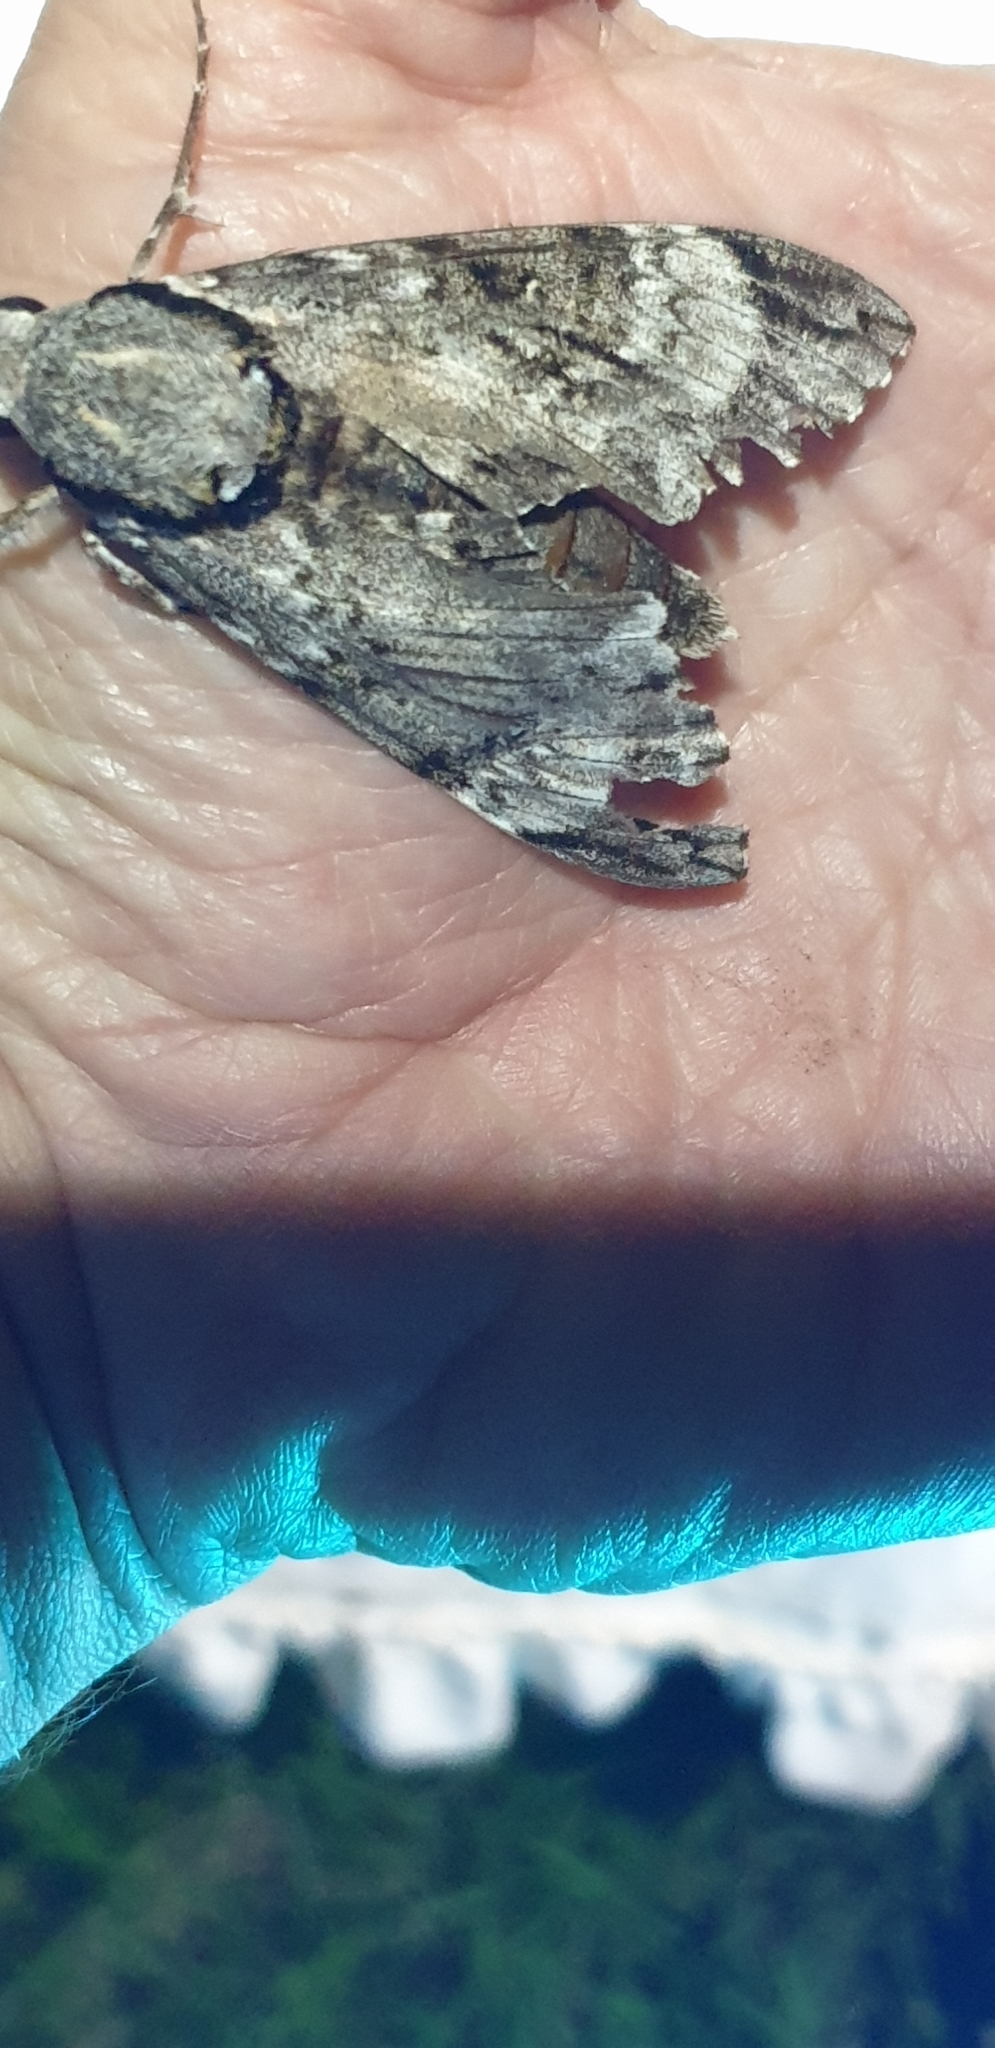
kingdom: Animalia
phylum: Arthropoda
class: Insecta
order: Lepidoptera
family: Sphingidae
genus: Psilogramma
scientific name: Psilogramma casuarinae
